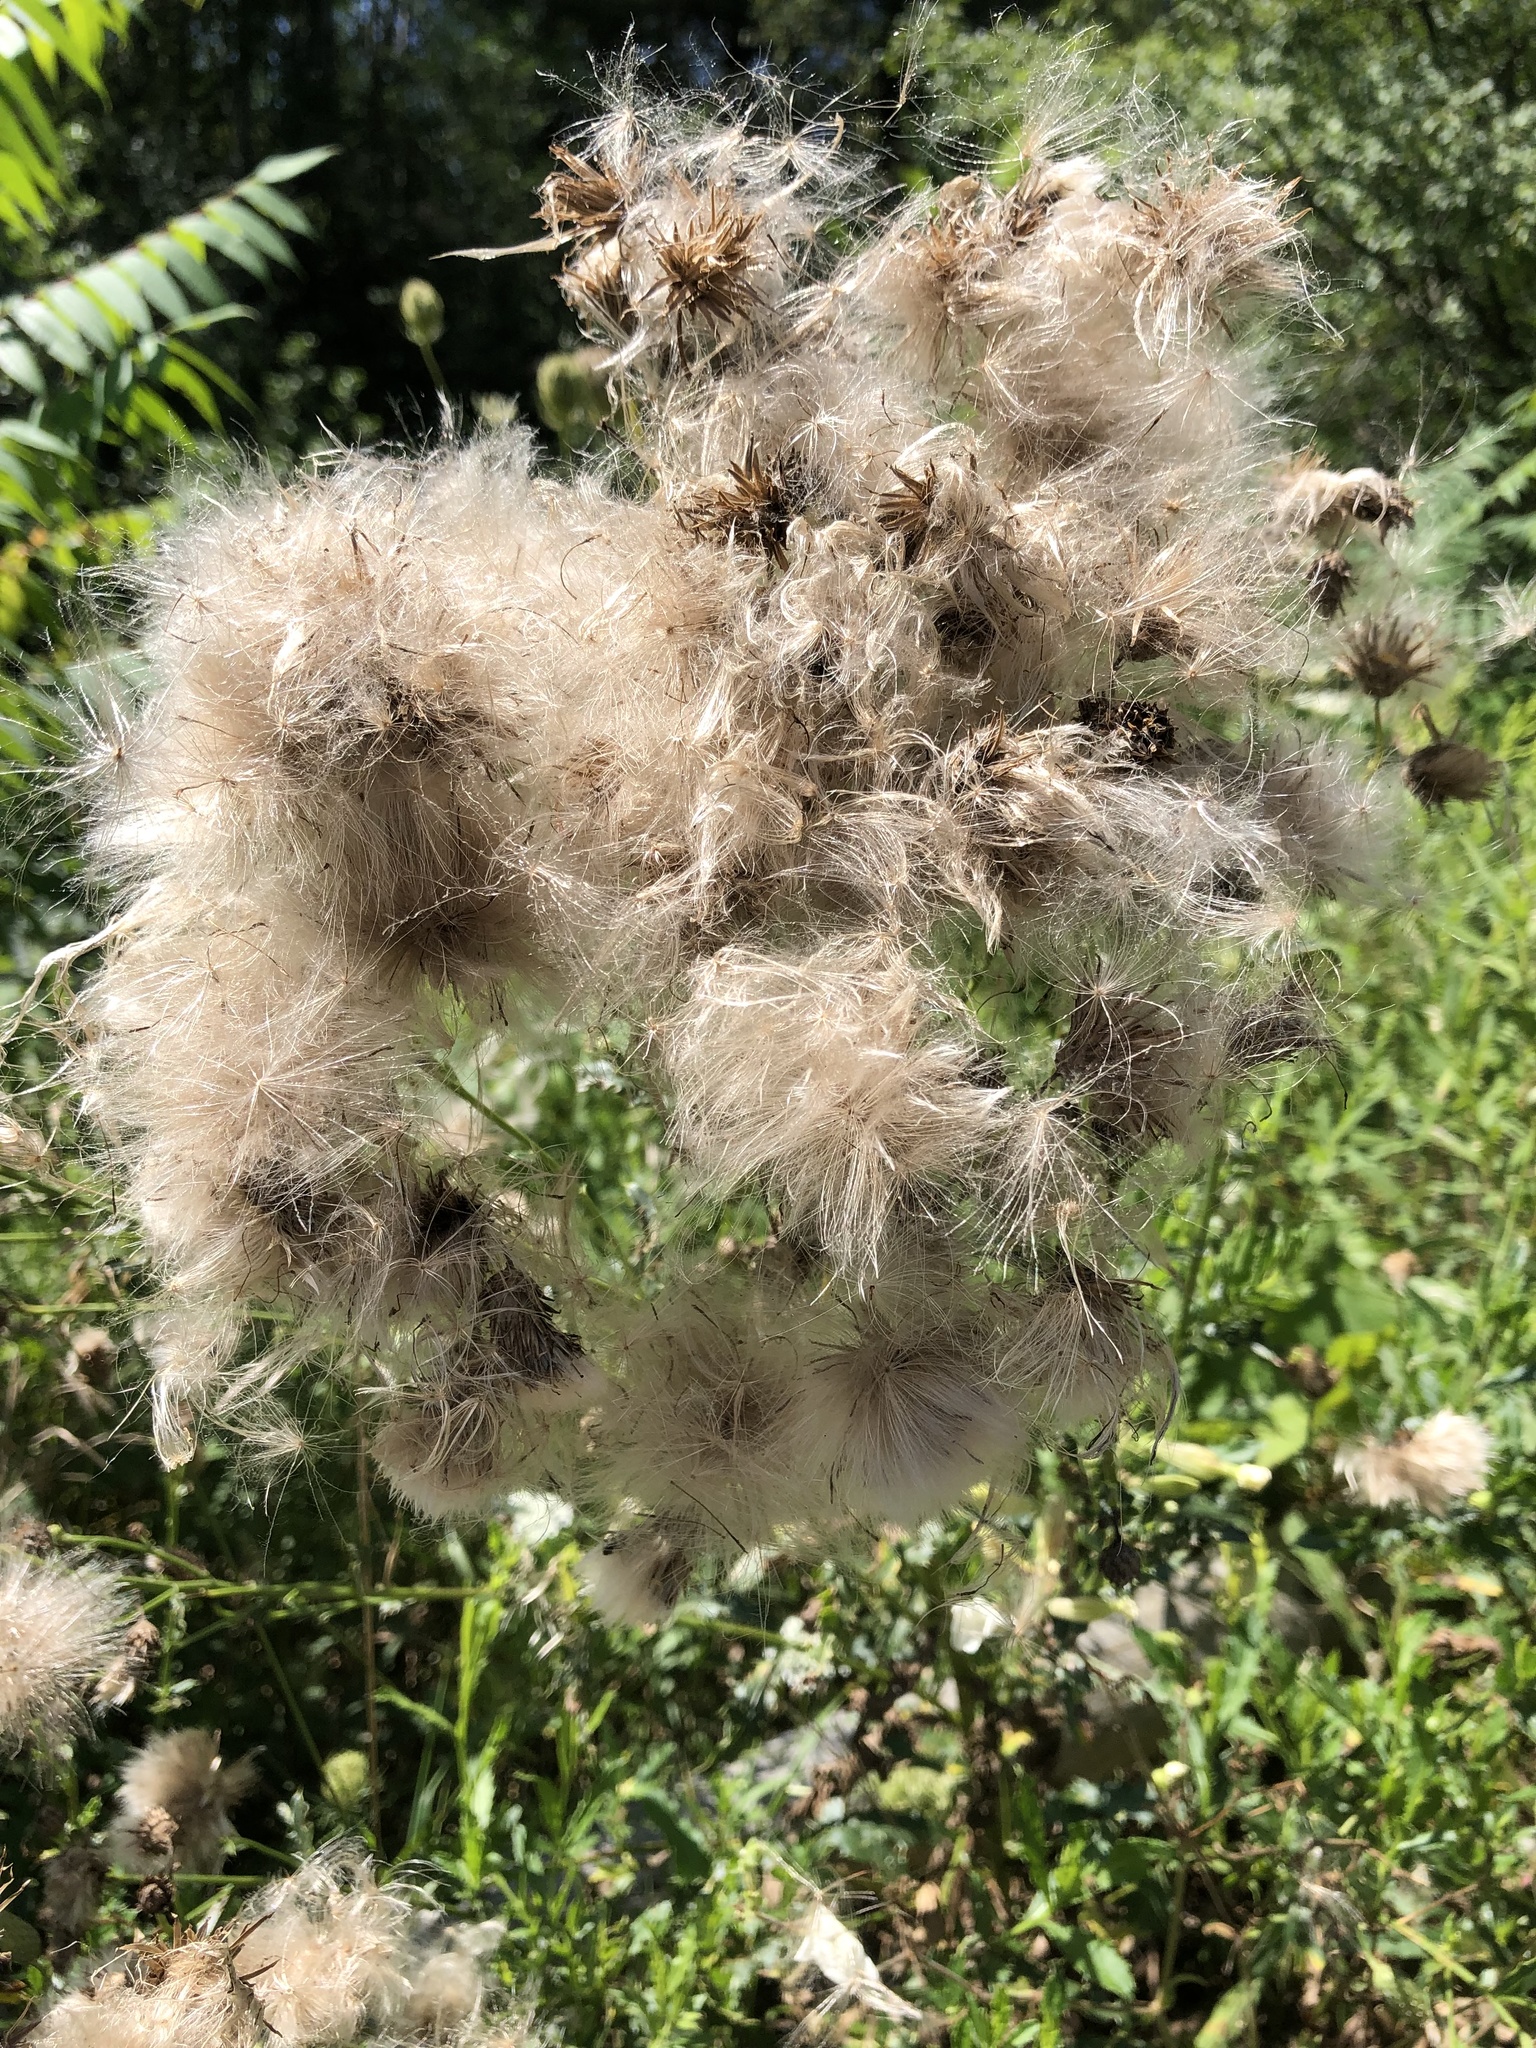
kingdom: Plantae
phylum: Tracheophyta
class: Magnoliopsida
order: Asterales
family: Asteraceae
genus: Cirsium
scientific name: Cirsium arvense
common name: Creeping thistle
